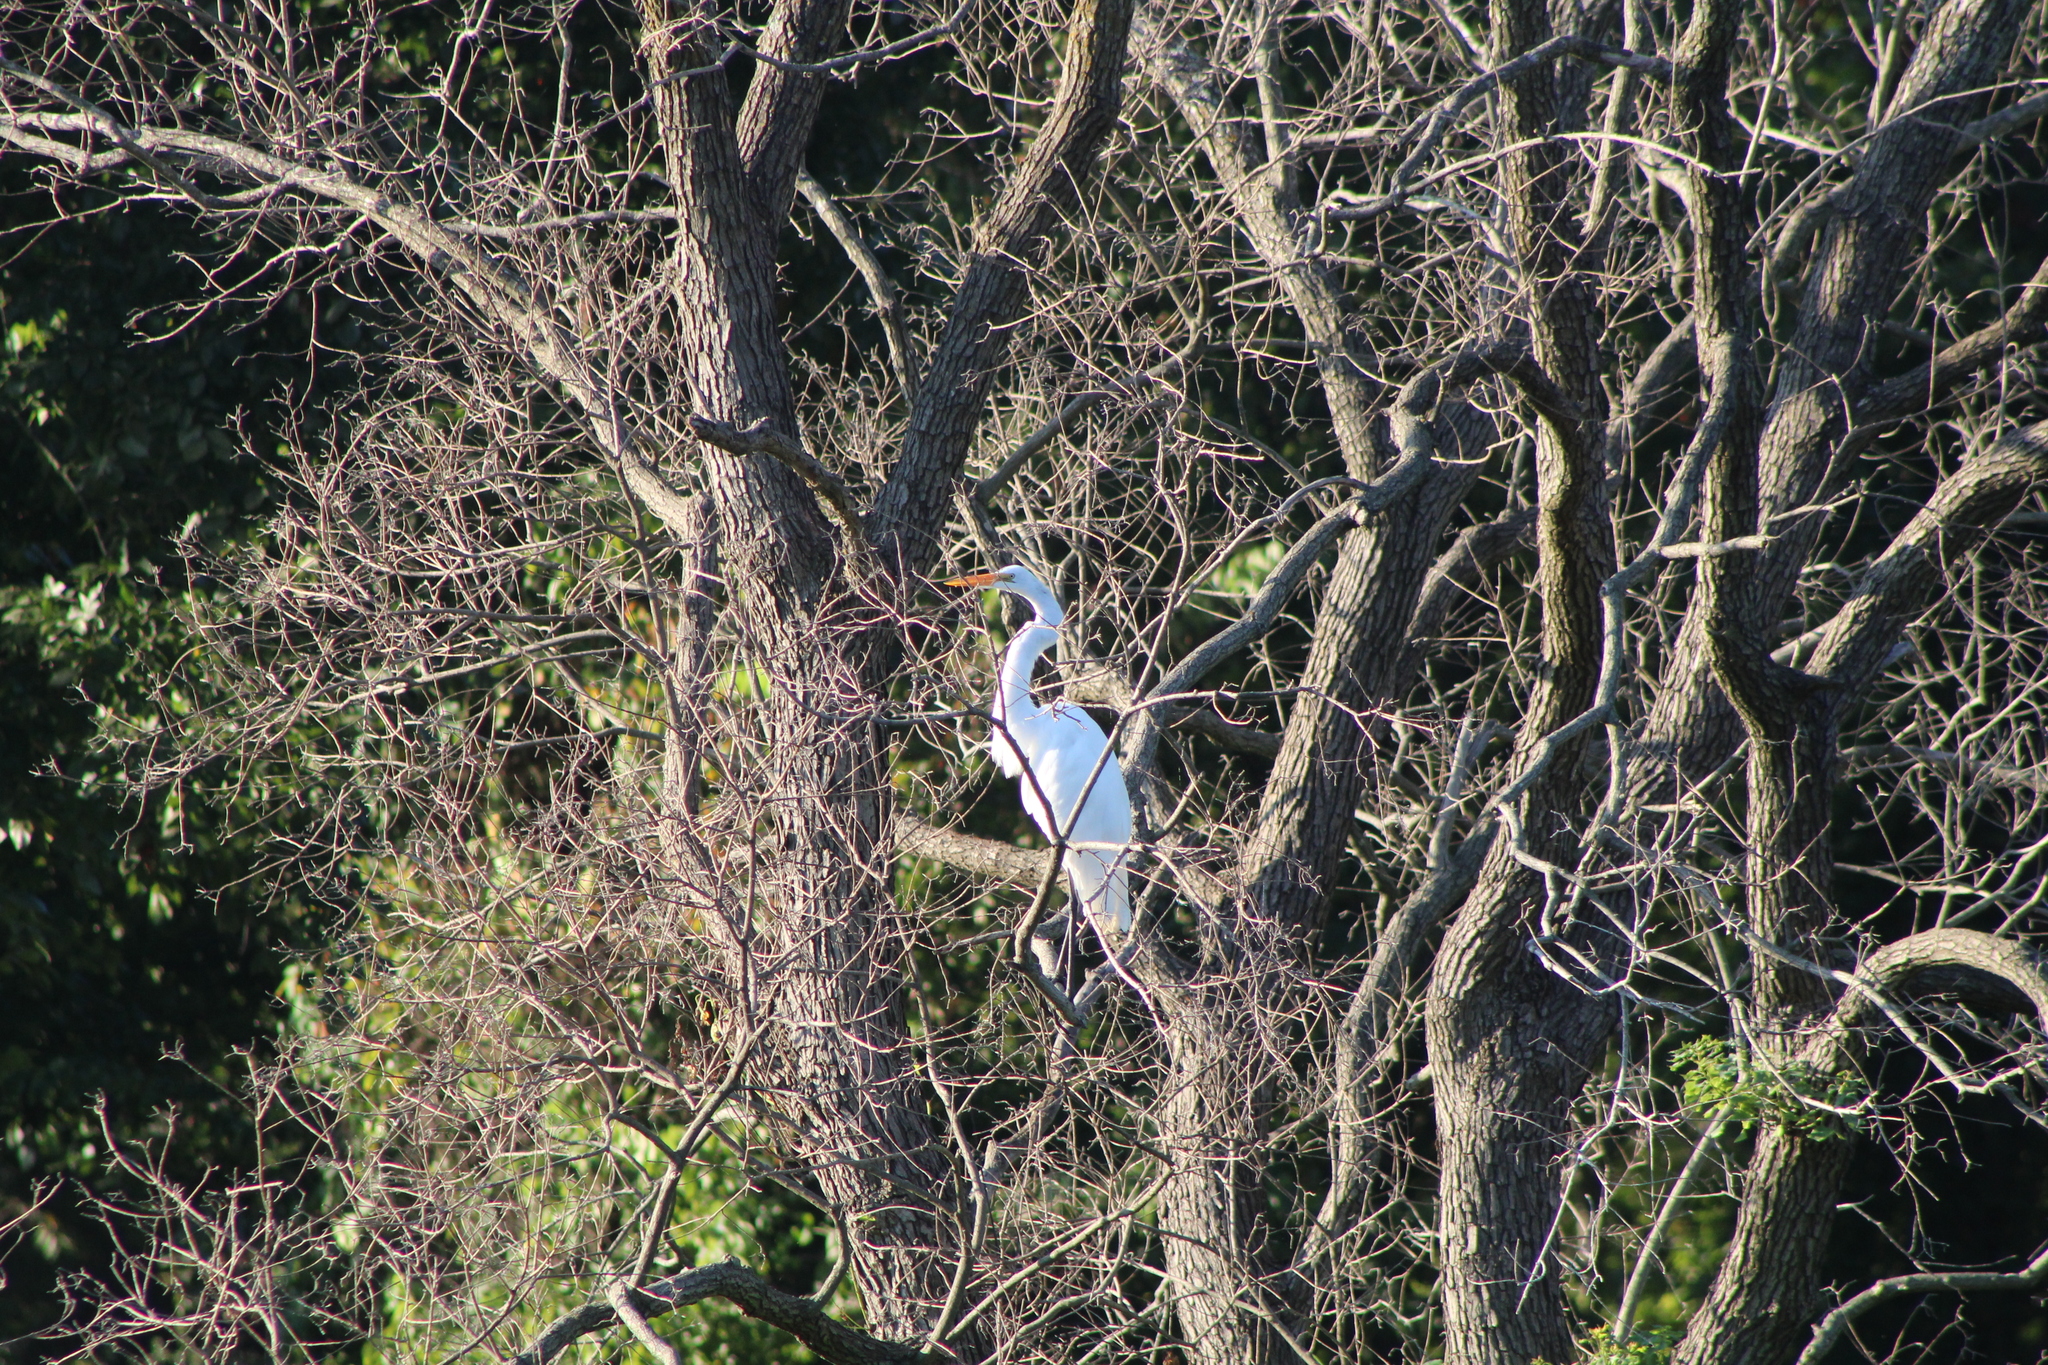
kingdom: Animalia
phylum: Chordata
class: Aves
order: Pelecaniformes
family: Ardeidae
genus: Ardea
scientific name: Ardea alba
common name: Great egret
